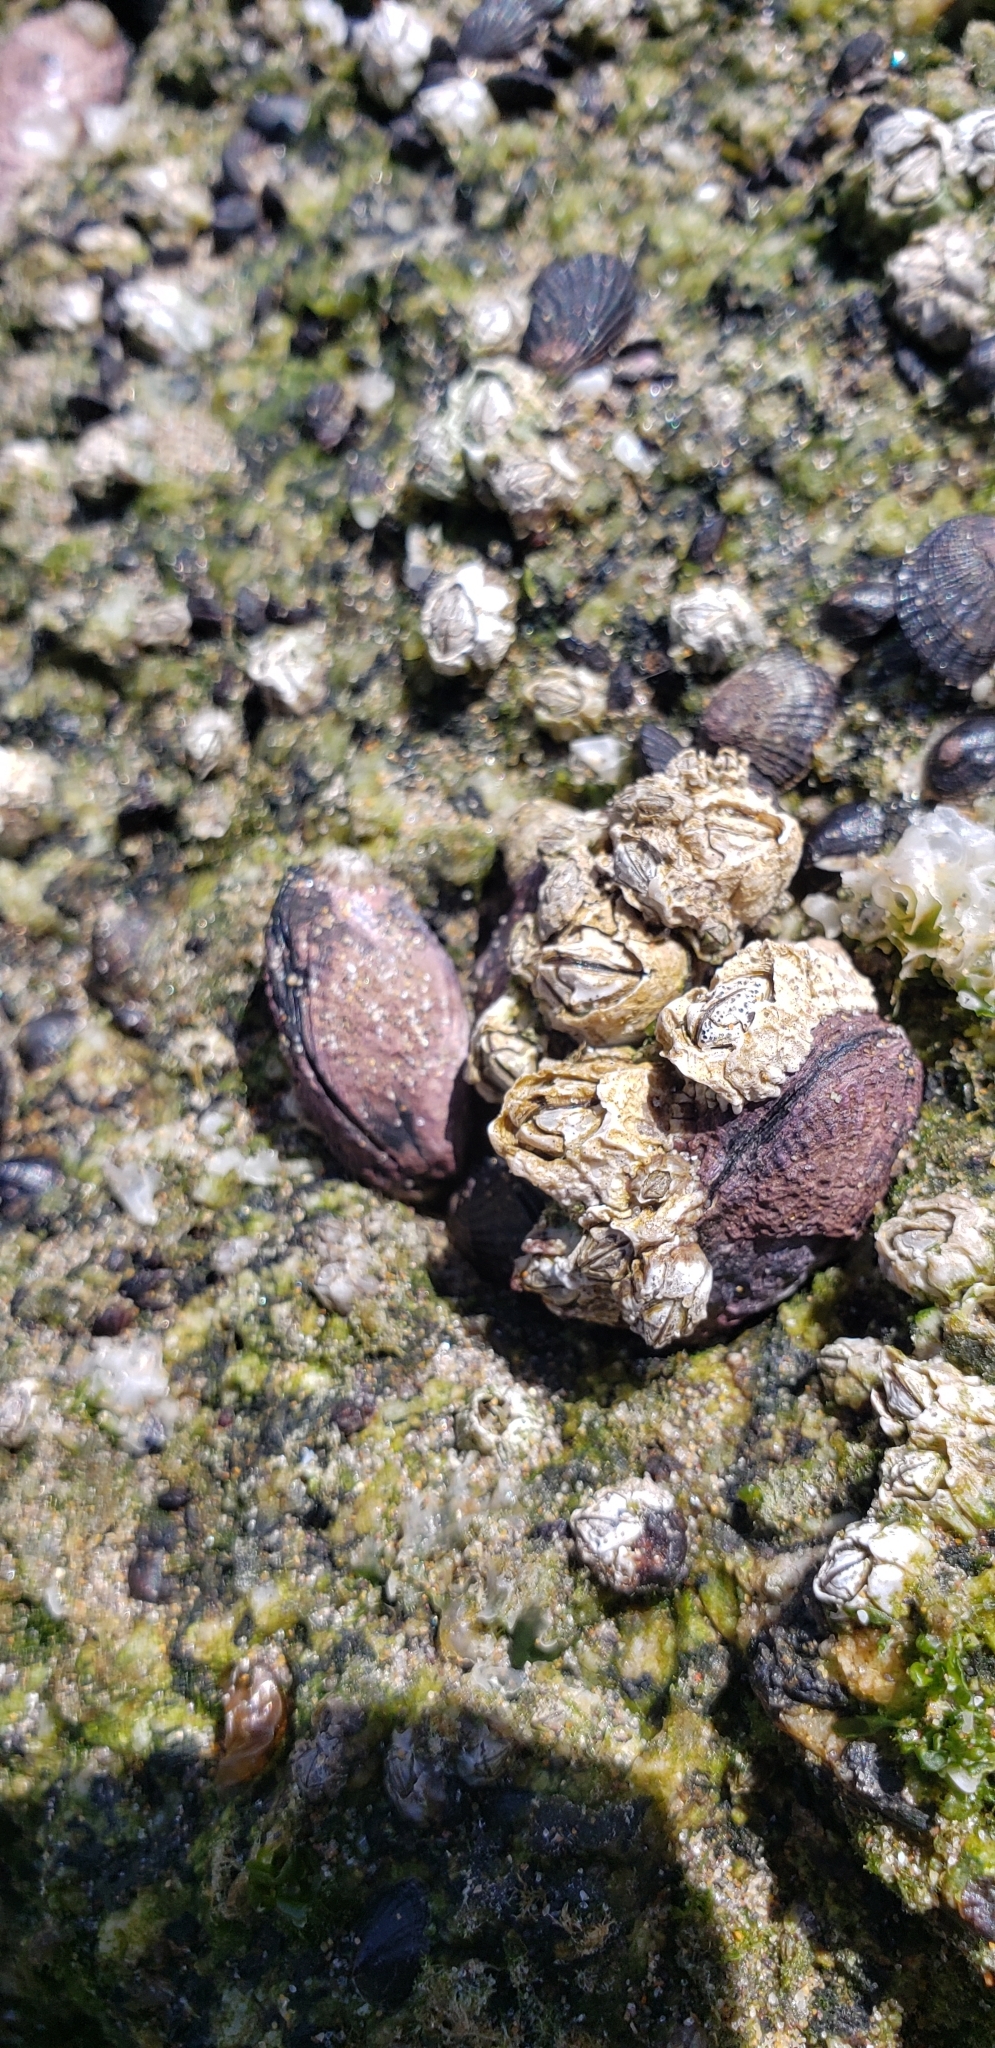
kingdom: Animalia
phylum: Arthropoda
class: Maxillopoda
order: Sessilia
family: Chthamalidae
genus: Jehlius
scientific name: Jehlius cirratus
